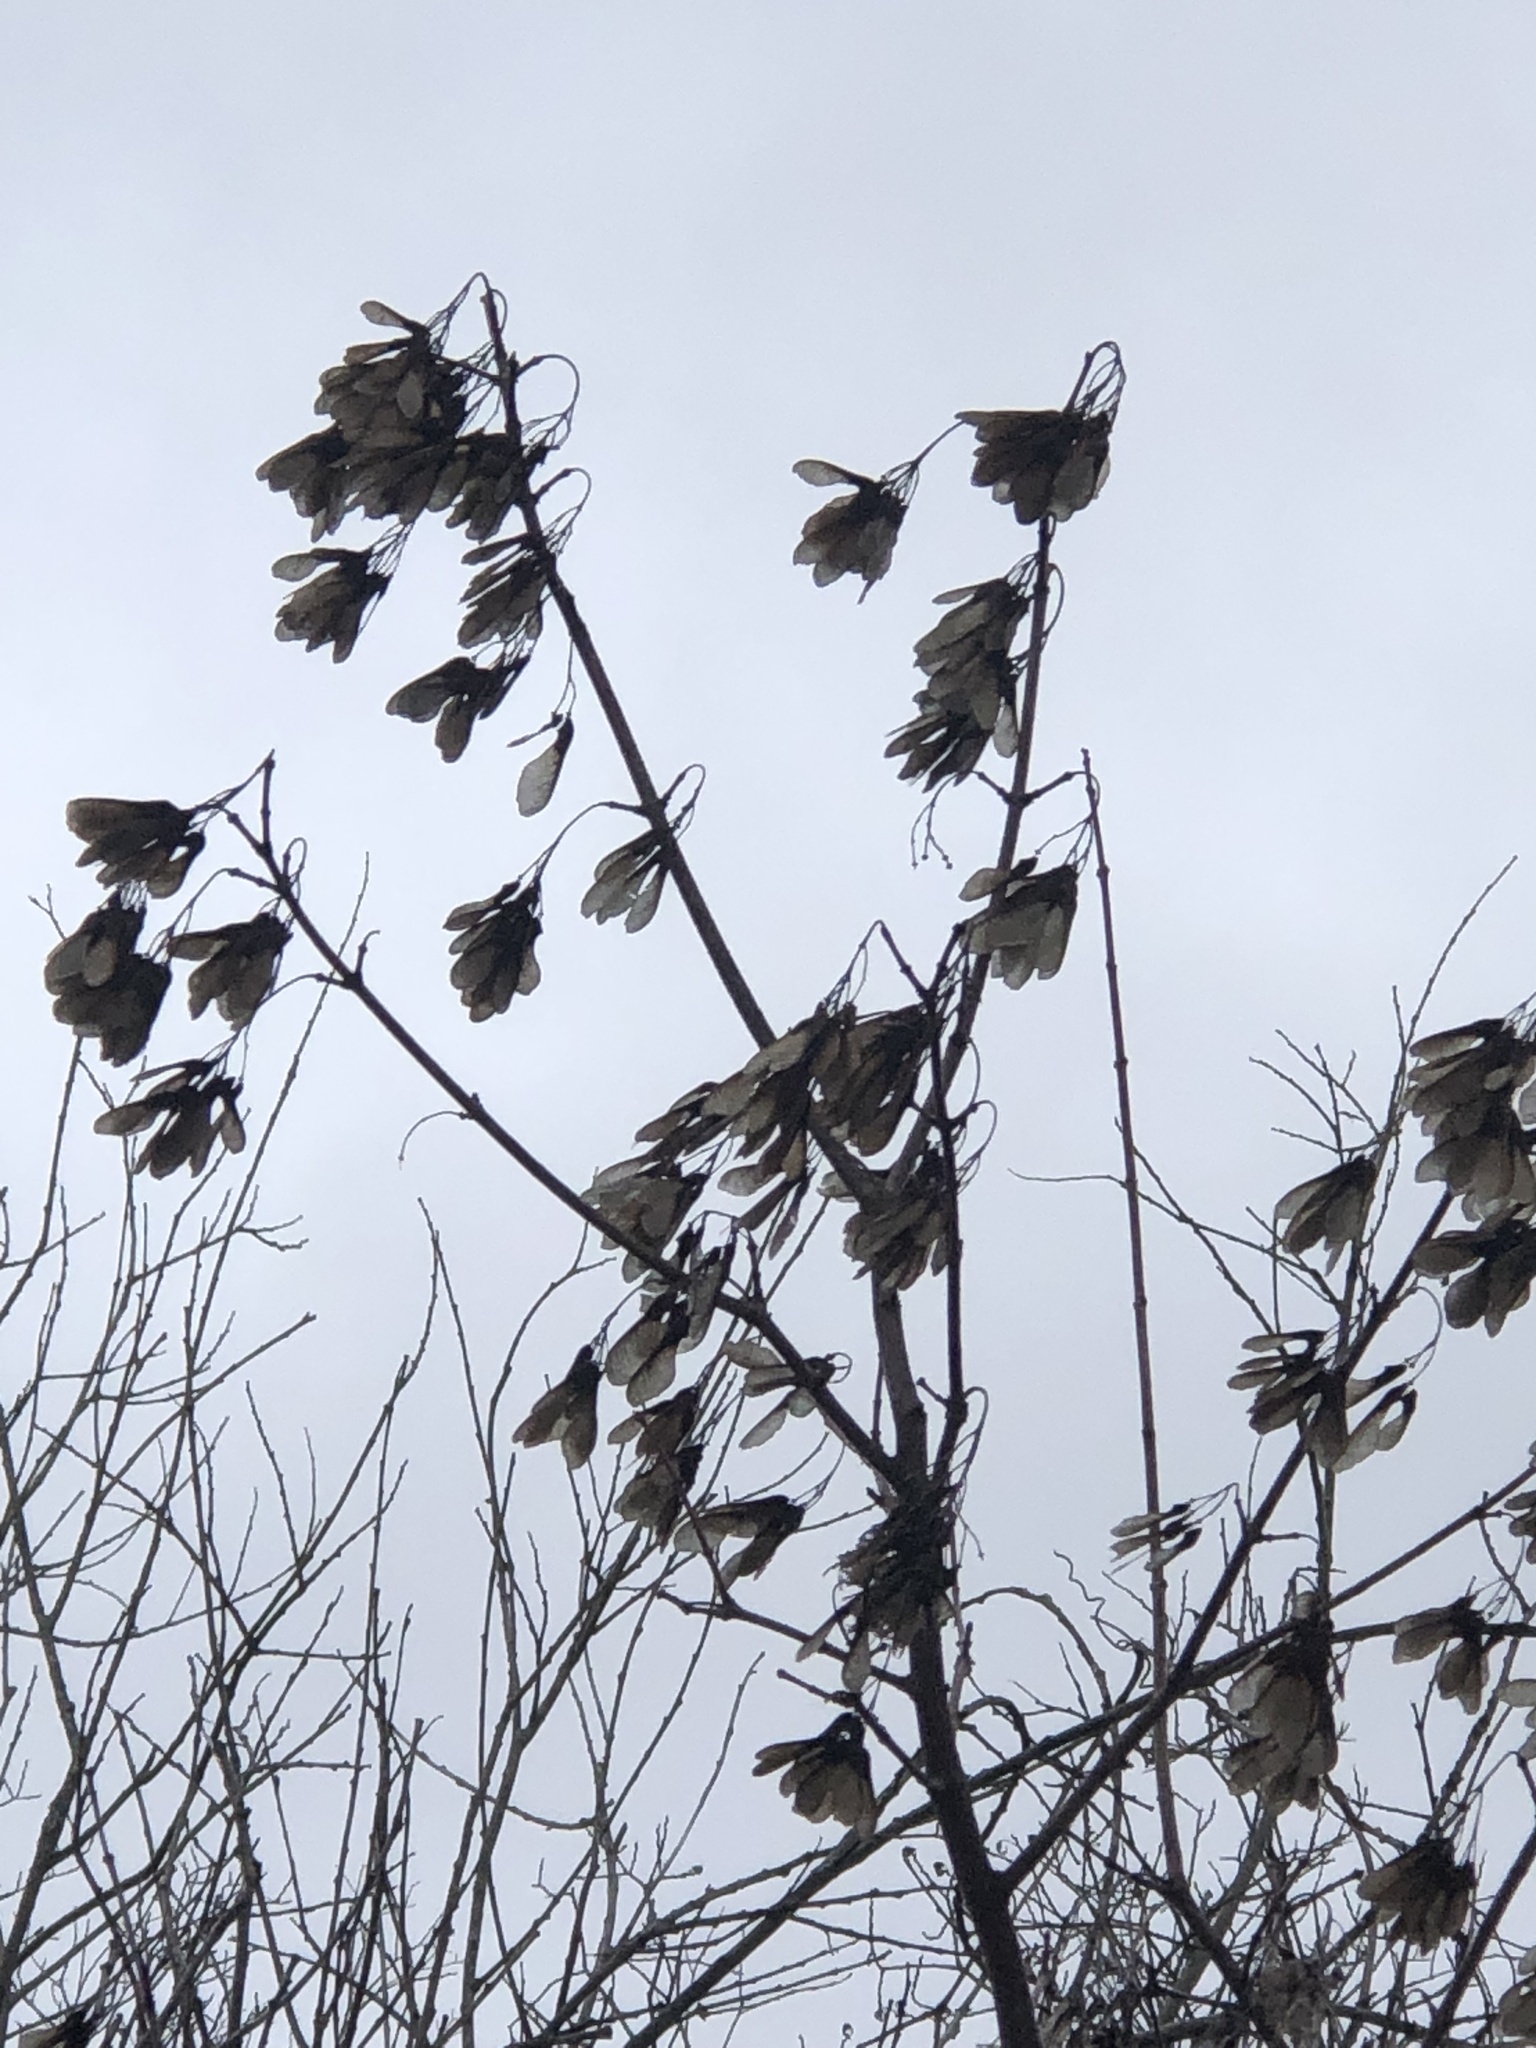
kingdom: Plantae
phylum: Tracheophyta
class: Magnoliopsida
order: Sapindales
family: Sapindaceae
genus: Acer
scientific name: Acer negundo
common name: Ashleaf maple
